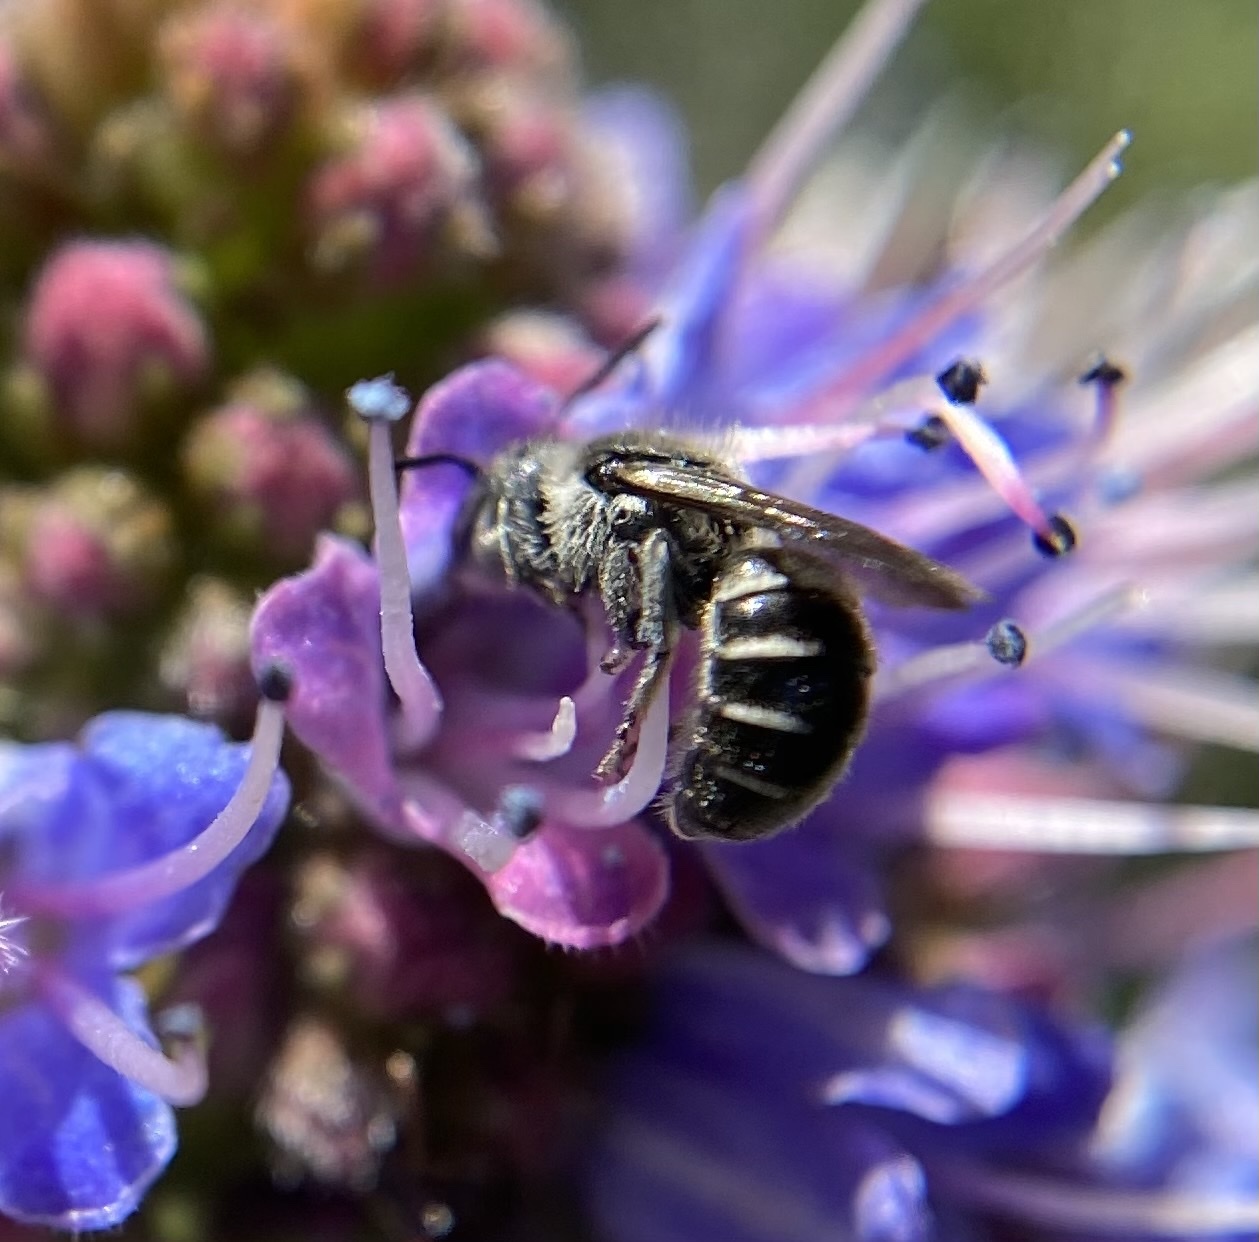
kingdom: Animalia
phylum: Arthropoda
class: Insecta
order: Hymenoptera
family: Megachilidae
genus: Protosmia
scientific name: Protosmia rubifloris
